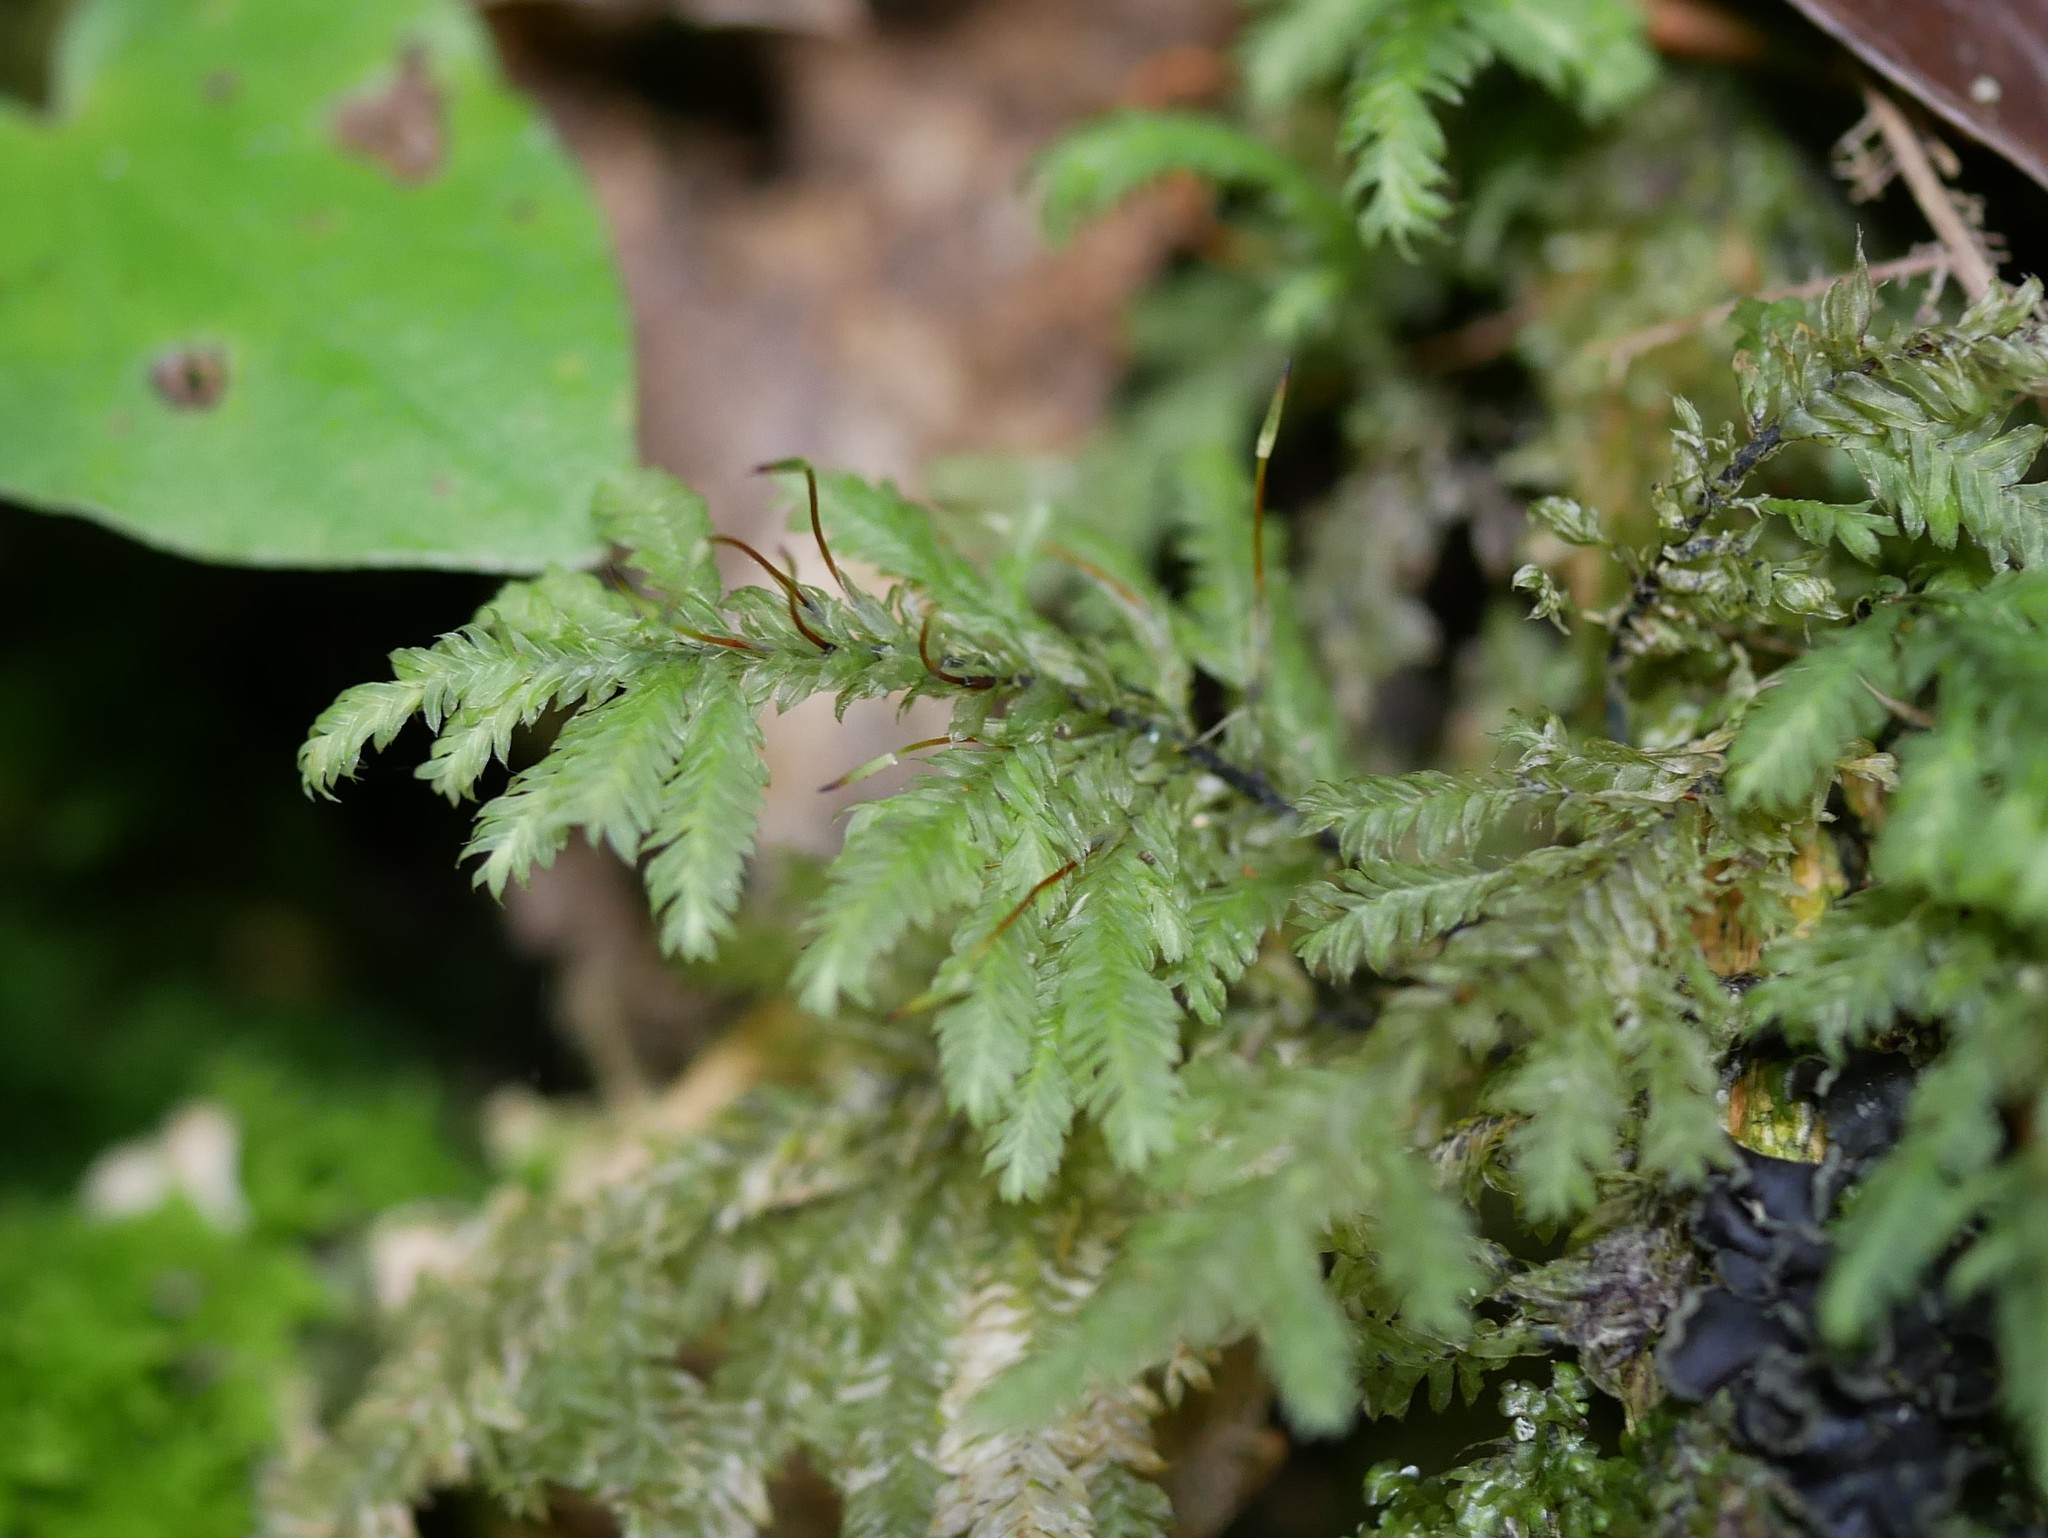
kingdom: Plantae
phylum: Bryophyta
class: Bryopsida
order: Hypopterygiales
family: Hypopterygiaceae
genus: Lopidium
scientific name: Lopidium concinnum
